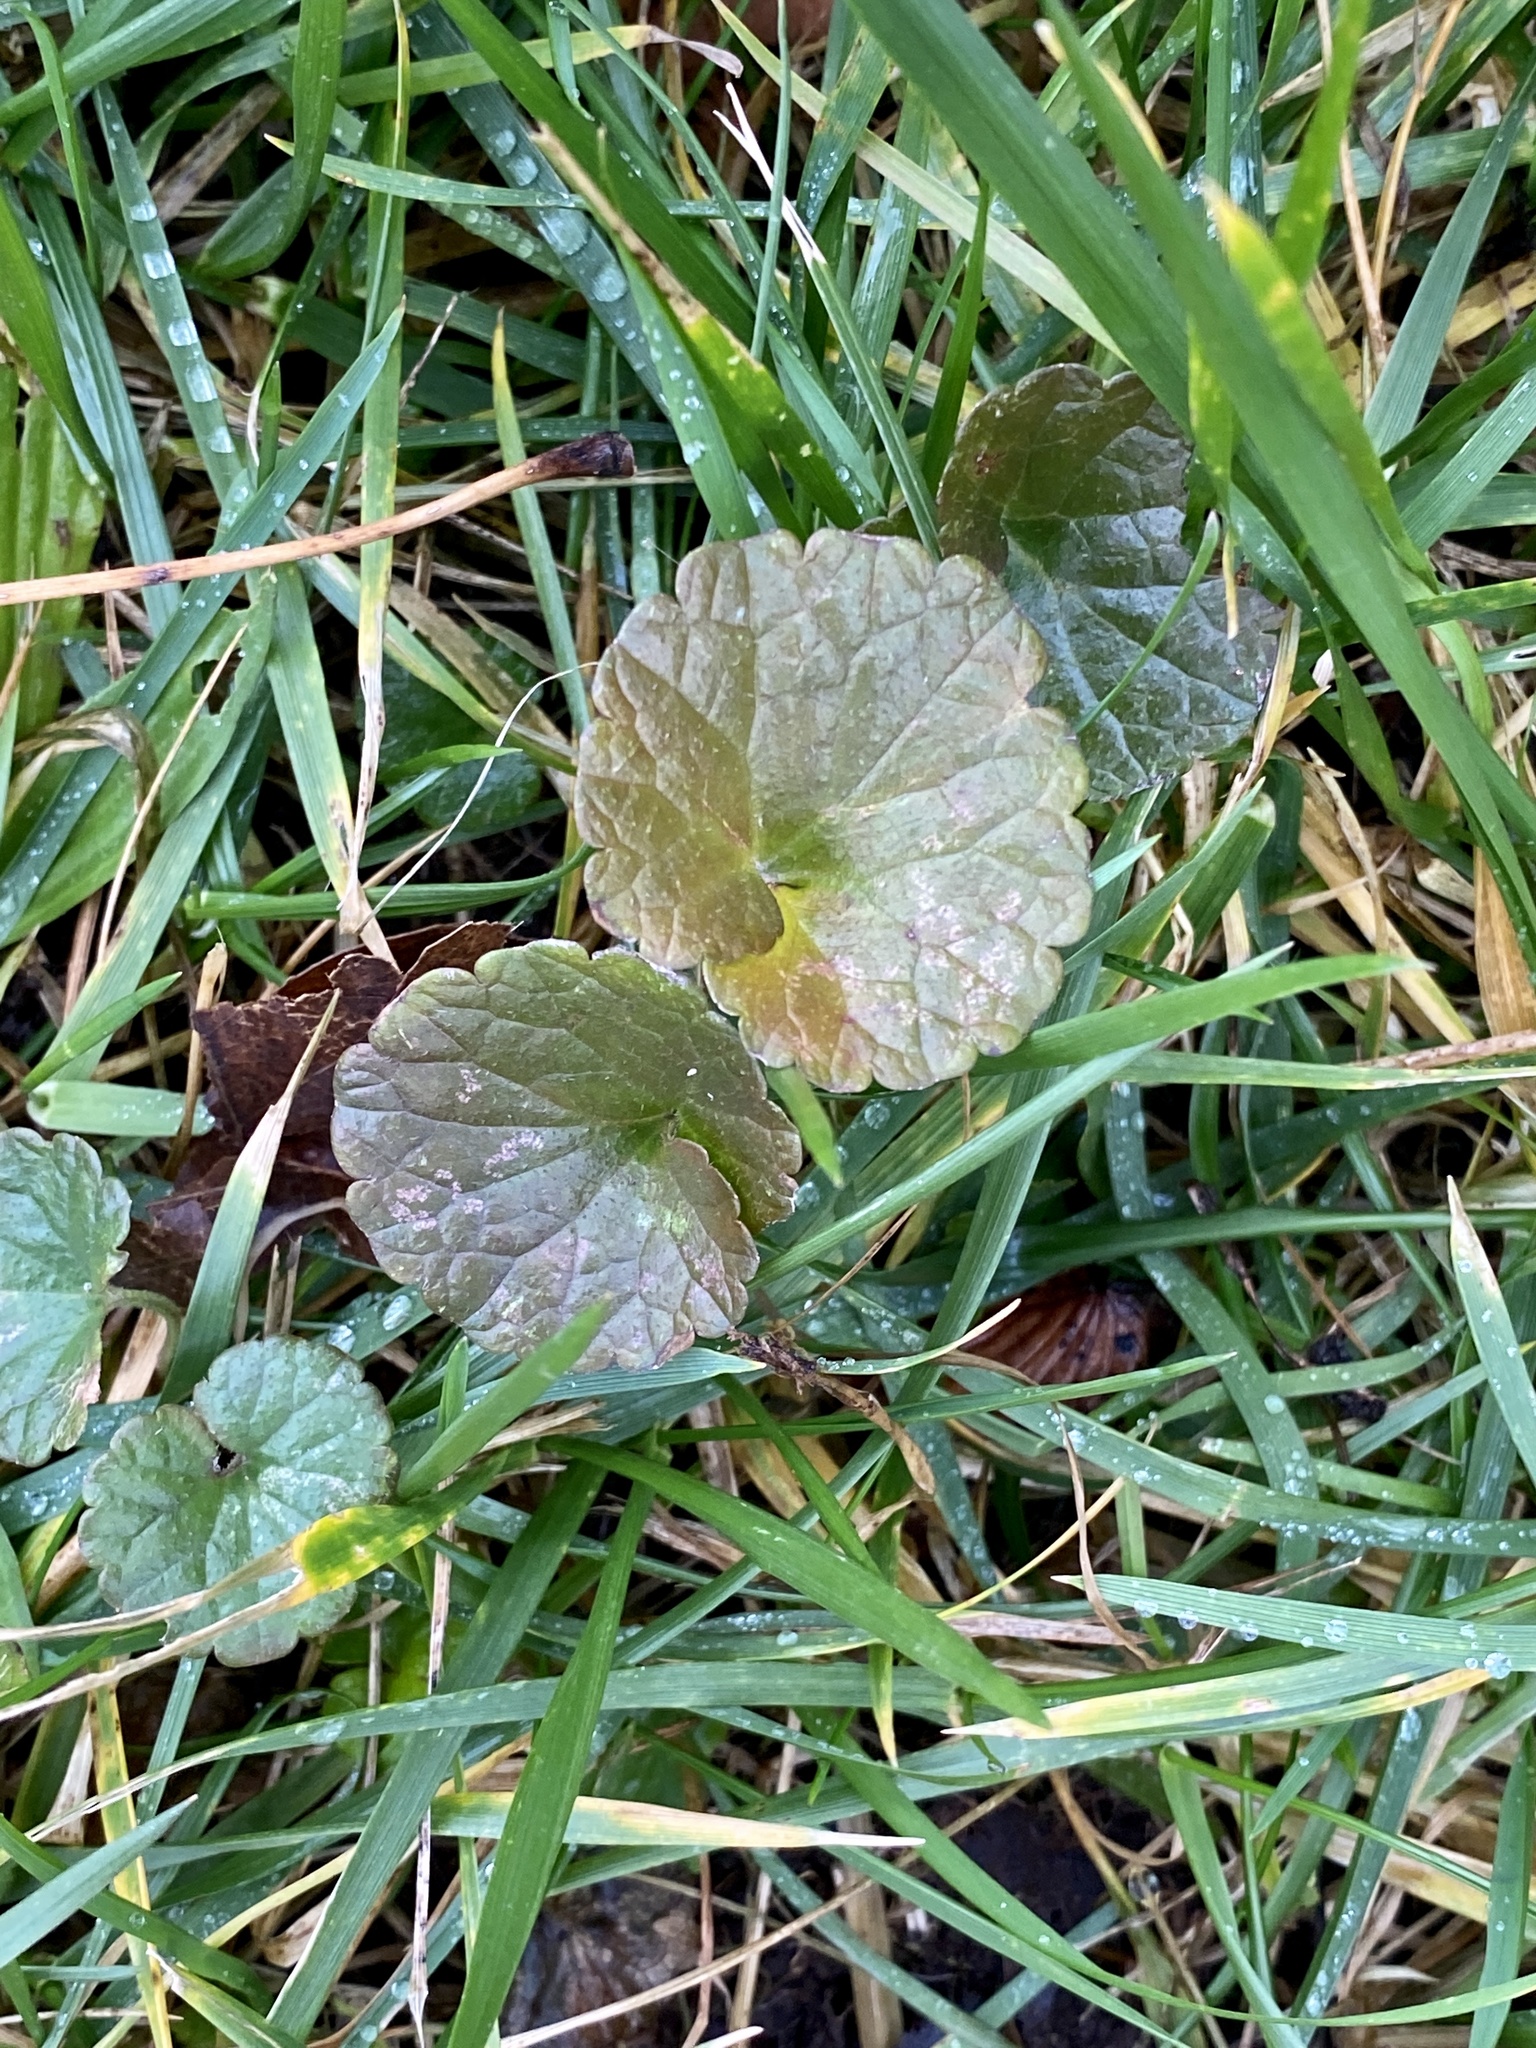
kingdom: Plantae
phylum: Tracheophyta
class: Magnoliopsida
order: Lamiales
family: Lamiaceae
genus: Glechoma
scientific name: Glechoma hederacea
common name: Ground ivy
